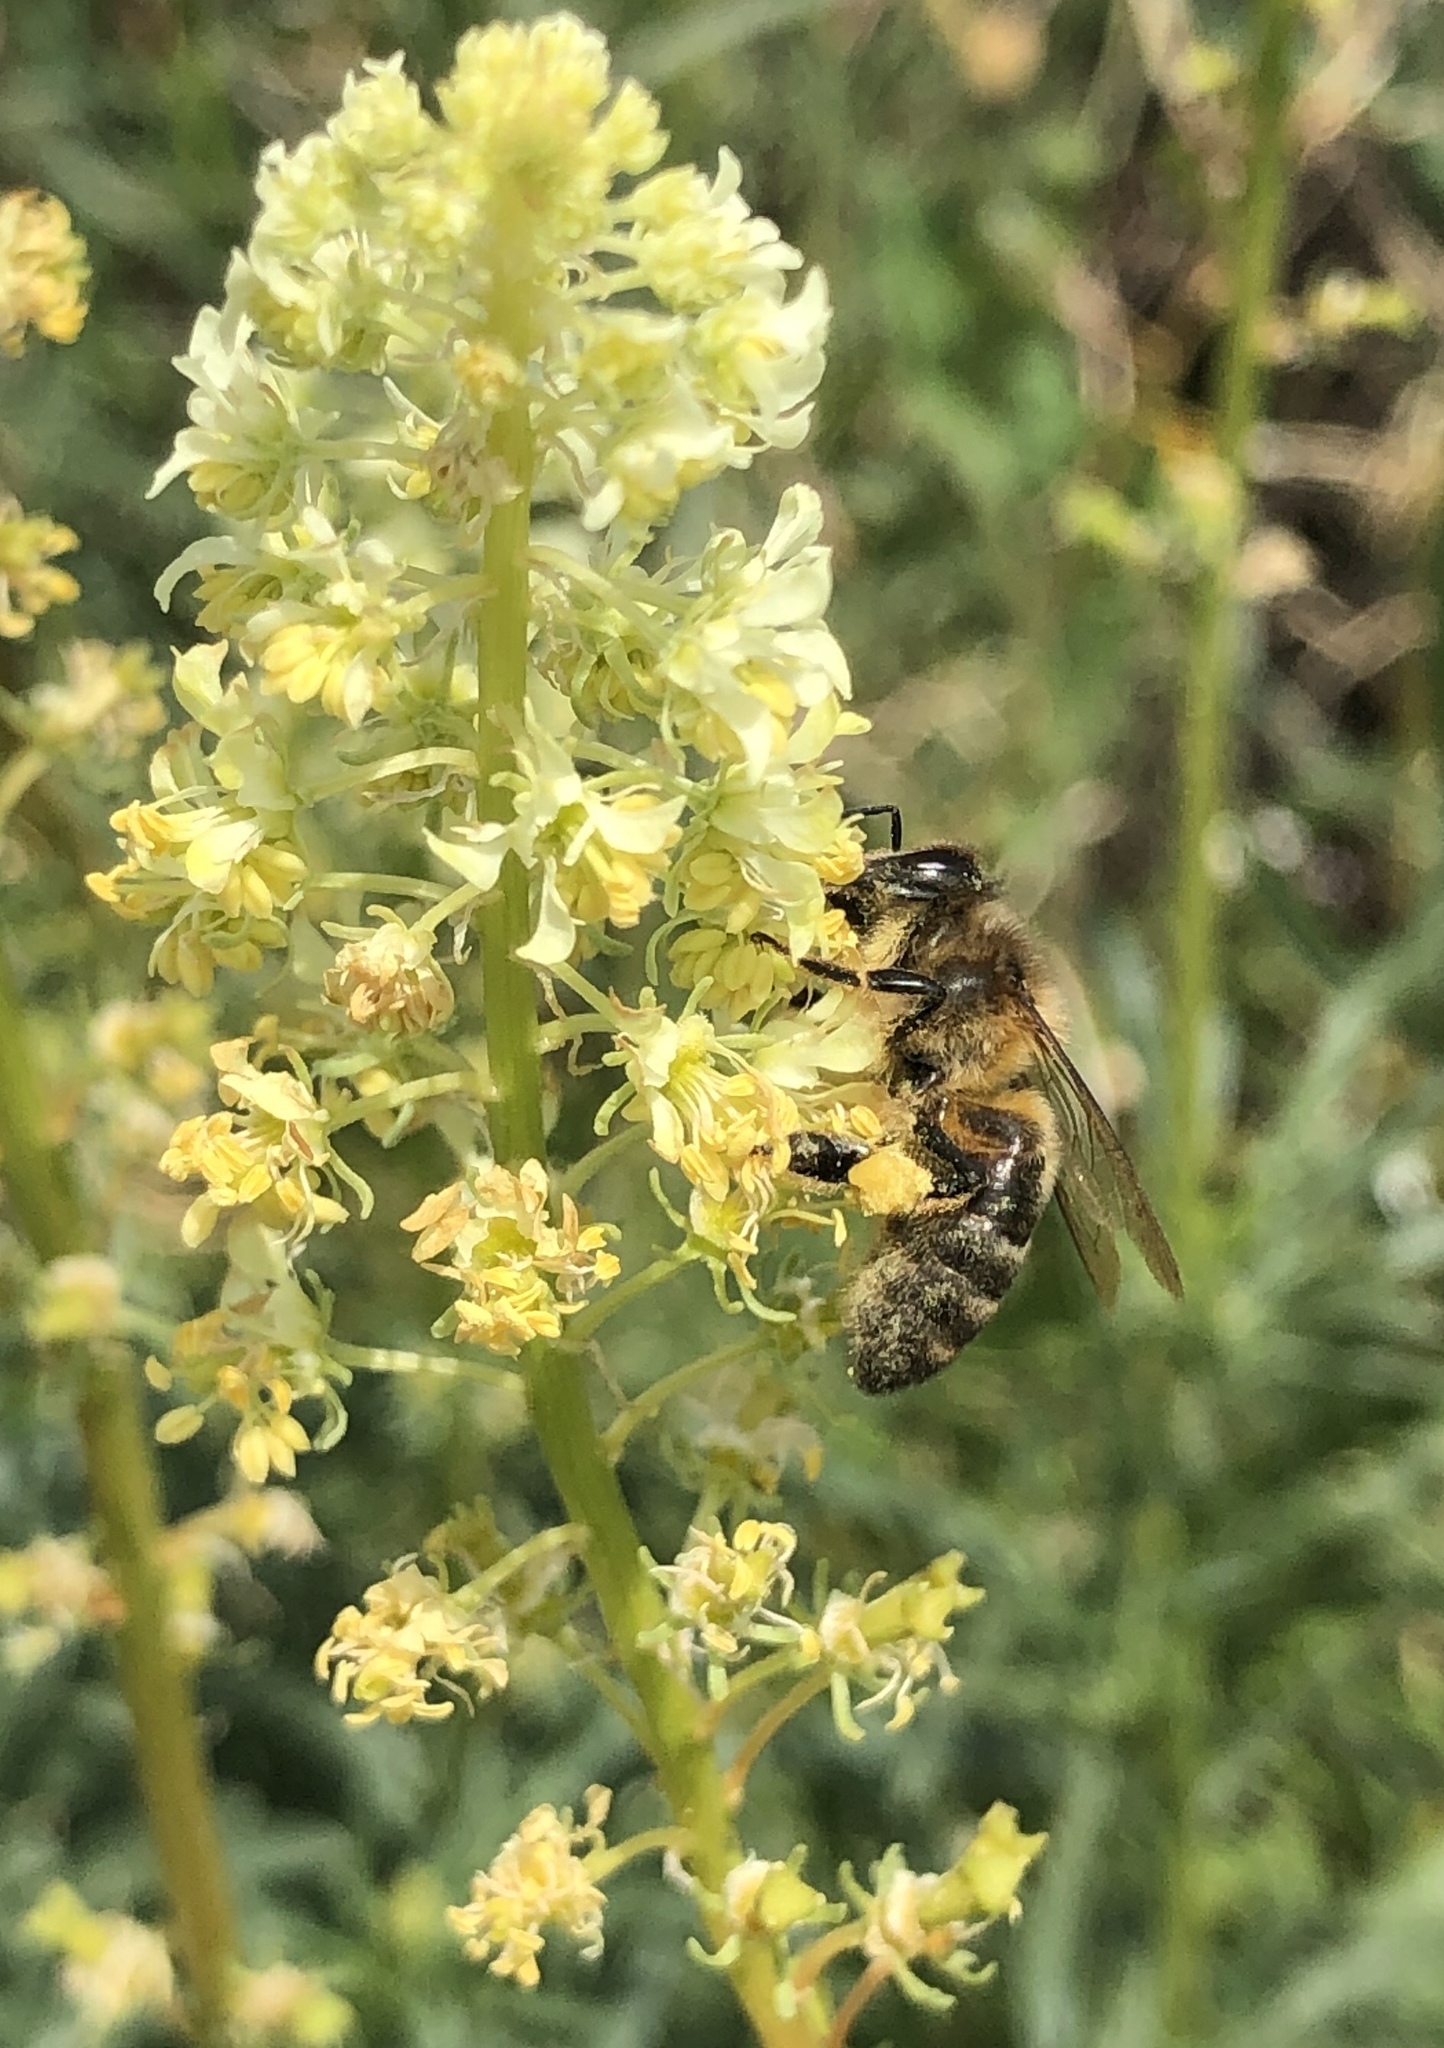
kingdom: Animalia
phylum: Arthropoda
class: Insecta
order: Hymenoptera
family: Apidae
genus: Apis
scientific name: Apis mellifera
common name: Honey bee
